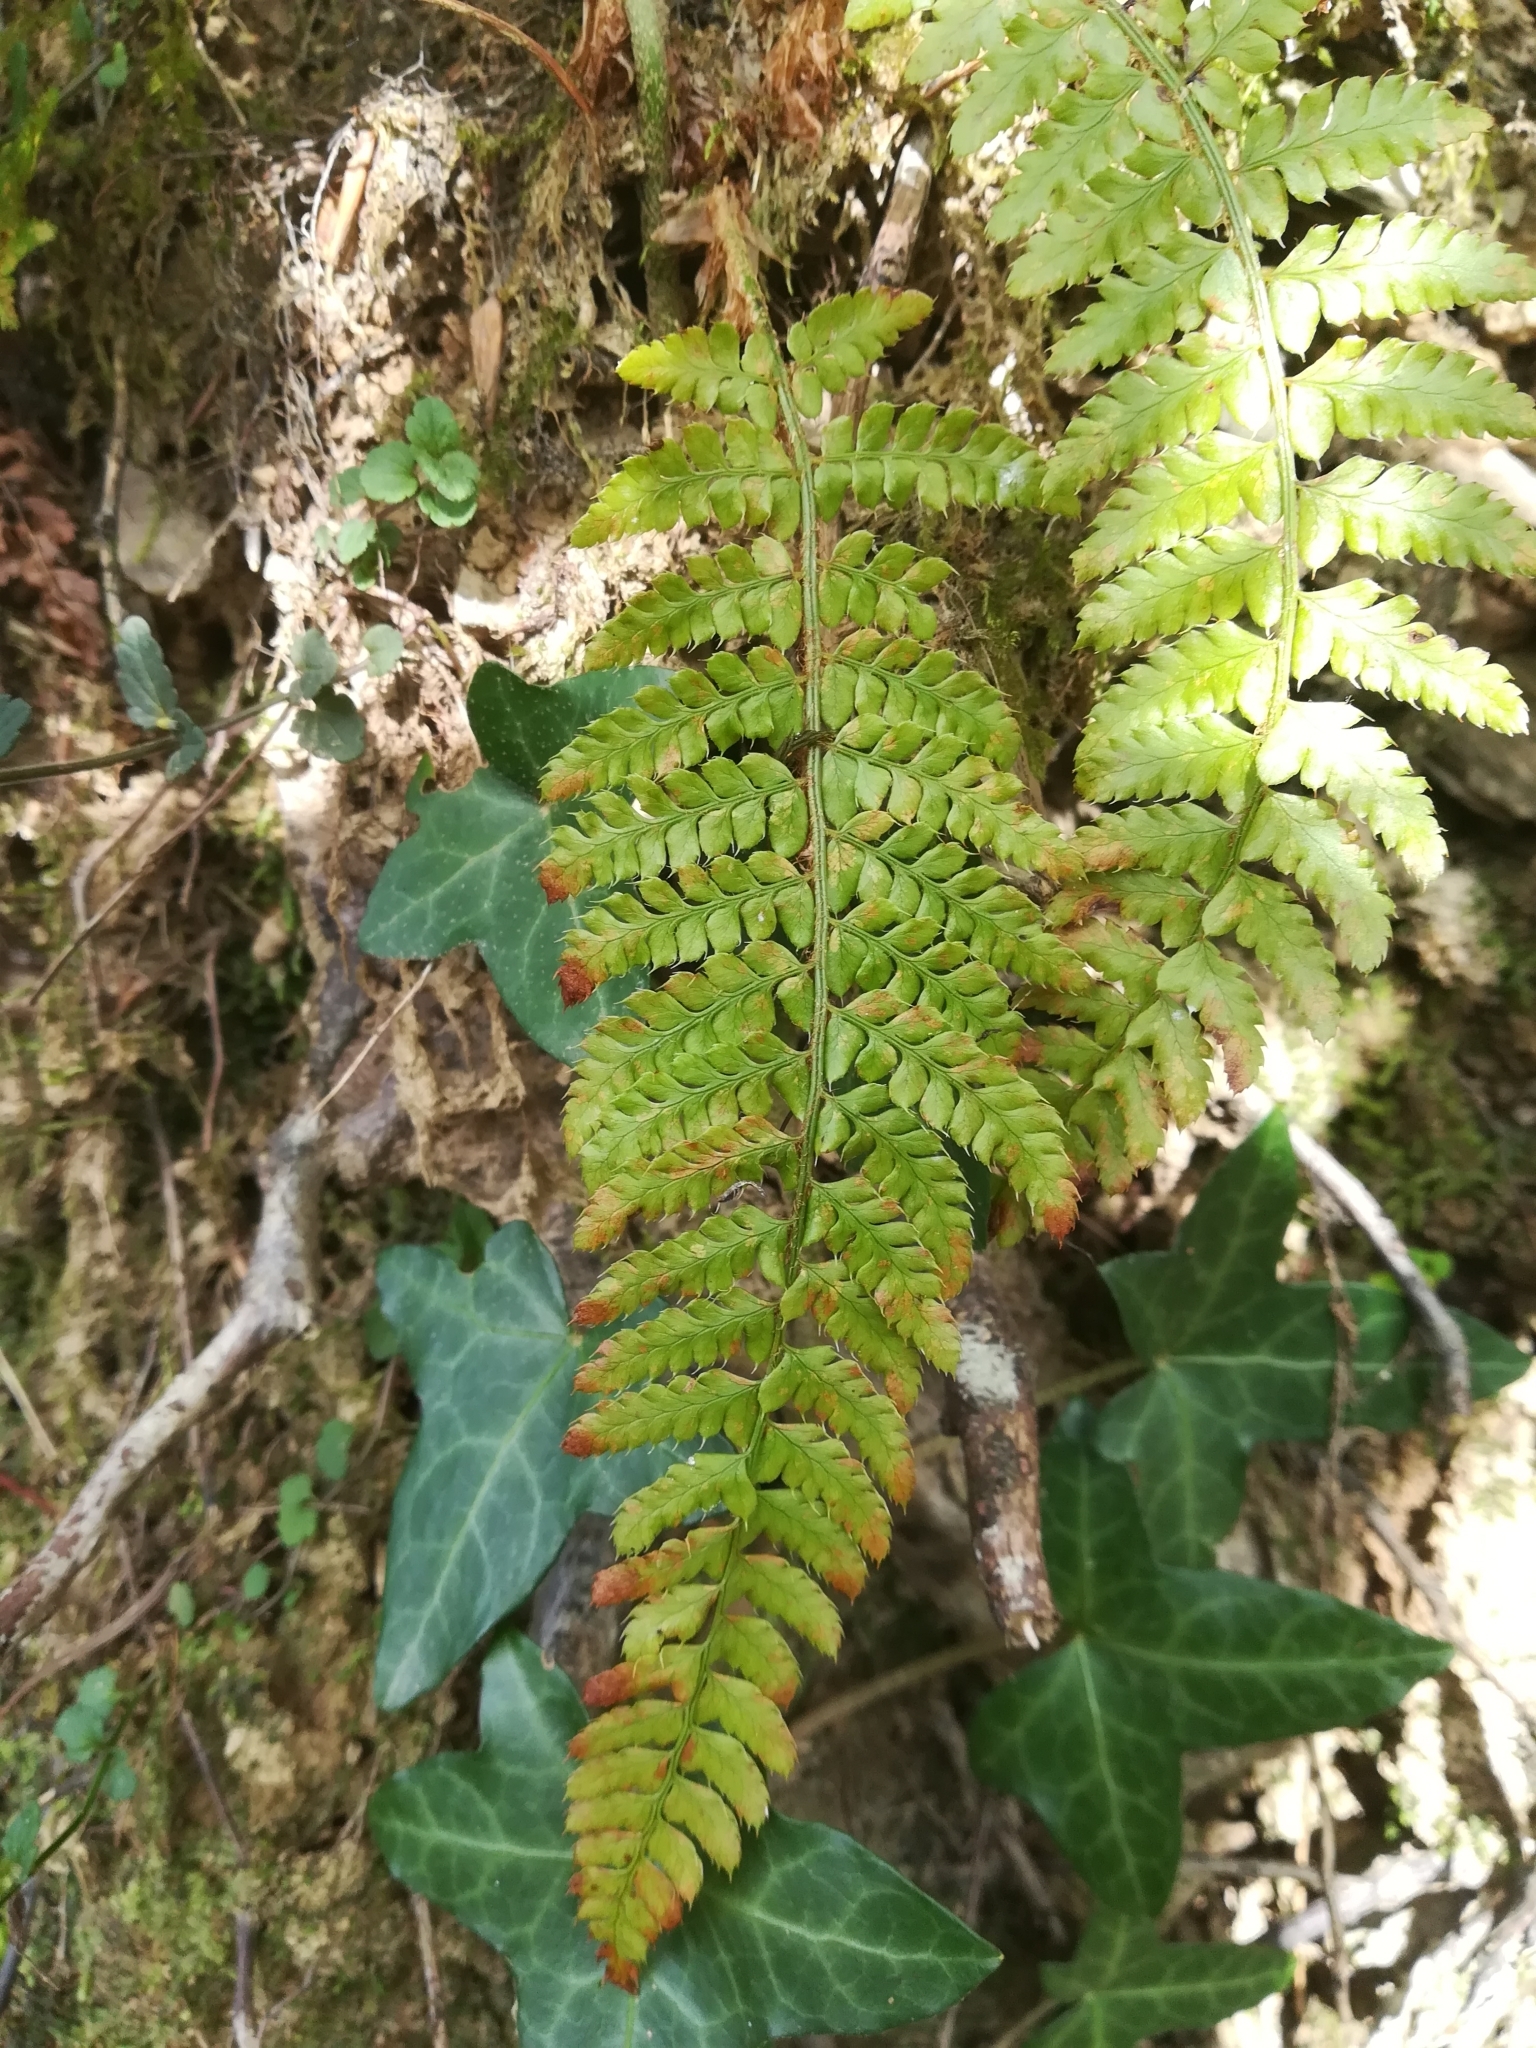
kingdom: Plantae
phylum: Tracheophyta
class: Polypodiopsida
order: Polypodiales
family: Dryopteridaceae
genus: Polystichum
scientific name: Polystichum setiferum
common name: Soft shield-fern
